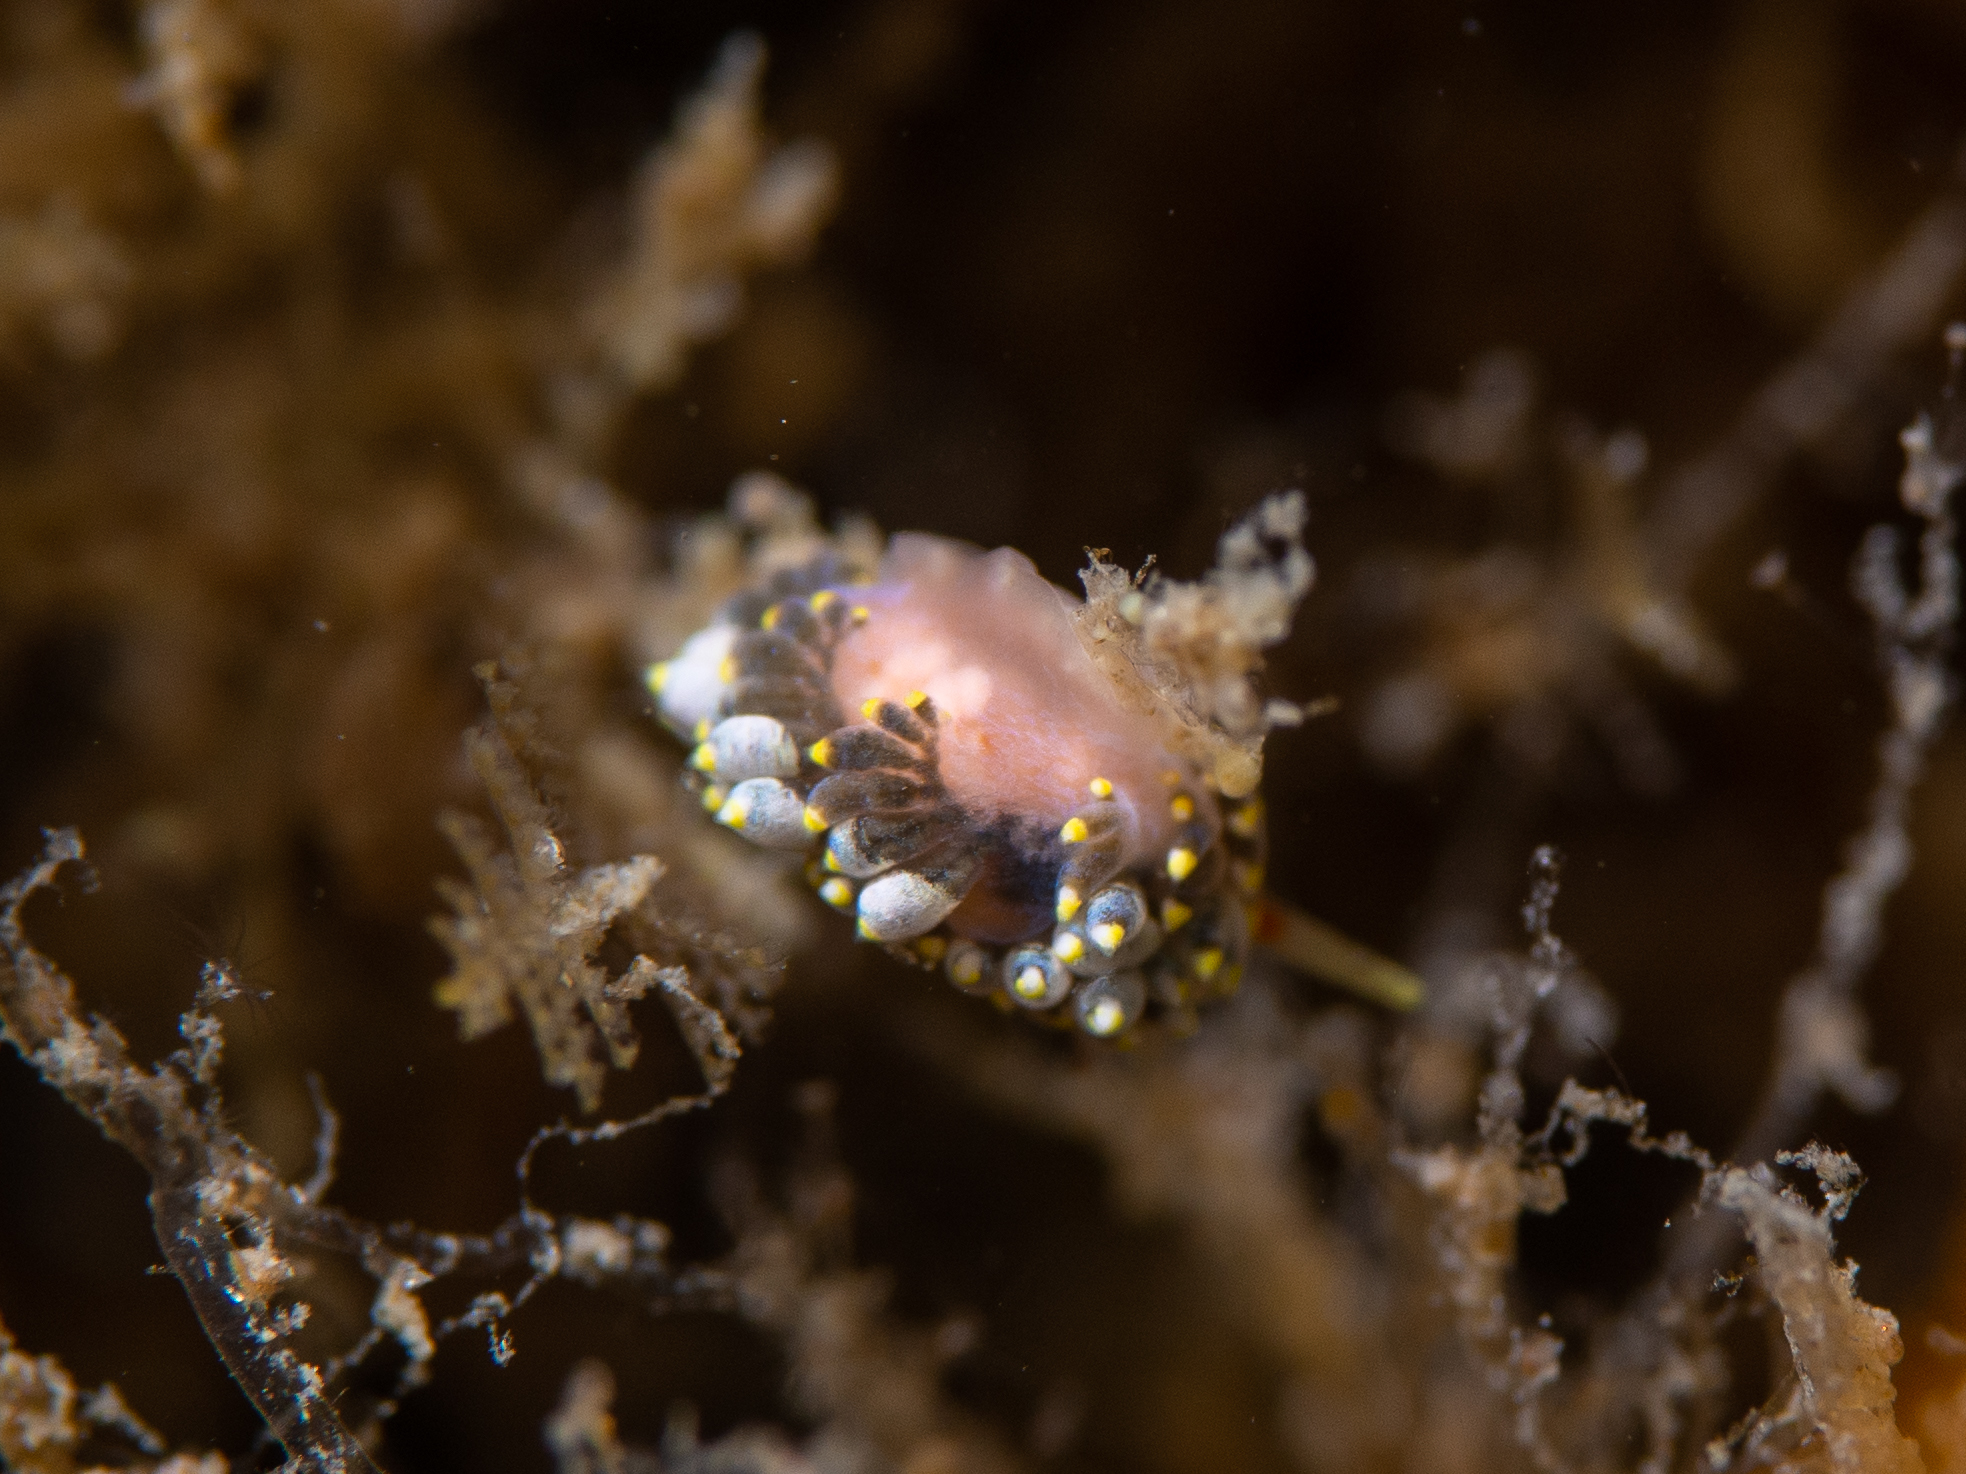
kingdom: Animalia
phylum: Mollusca
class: Gastropoda
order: Nudibranchia
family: Trinchesiidae
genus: Trinchesia
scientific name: Trinchesia catachroma
